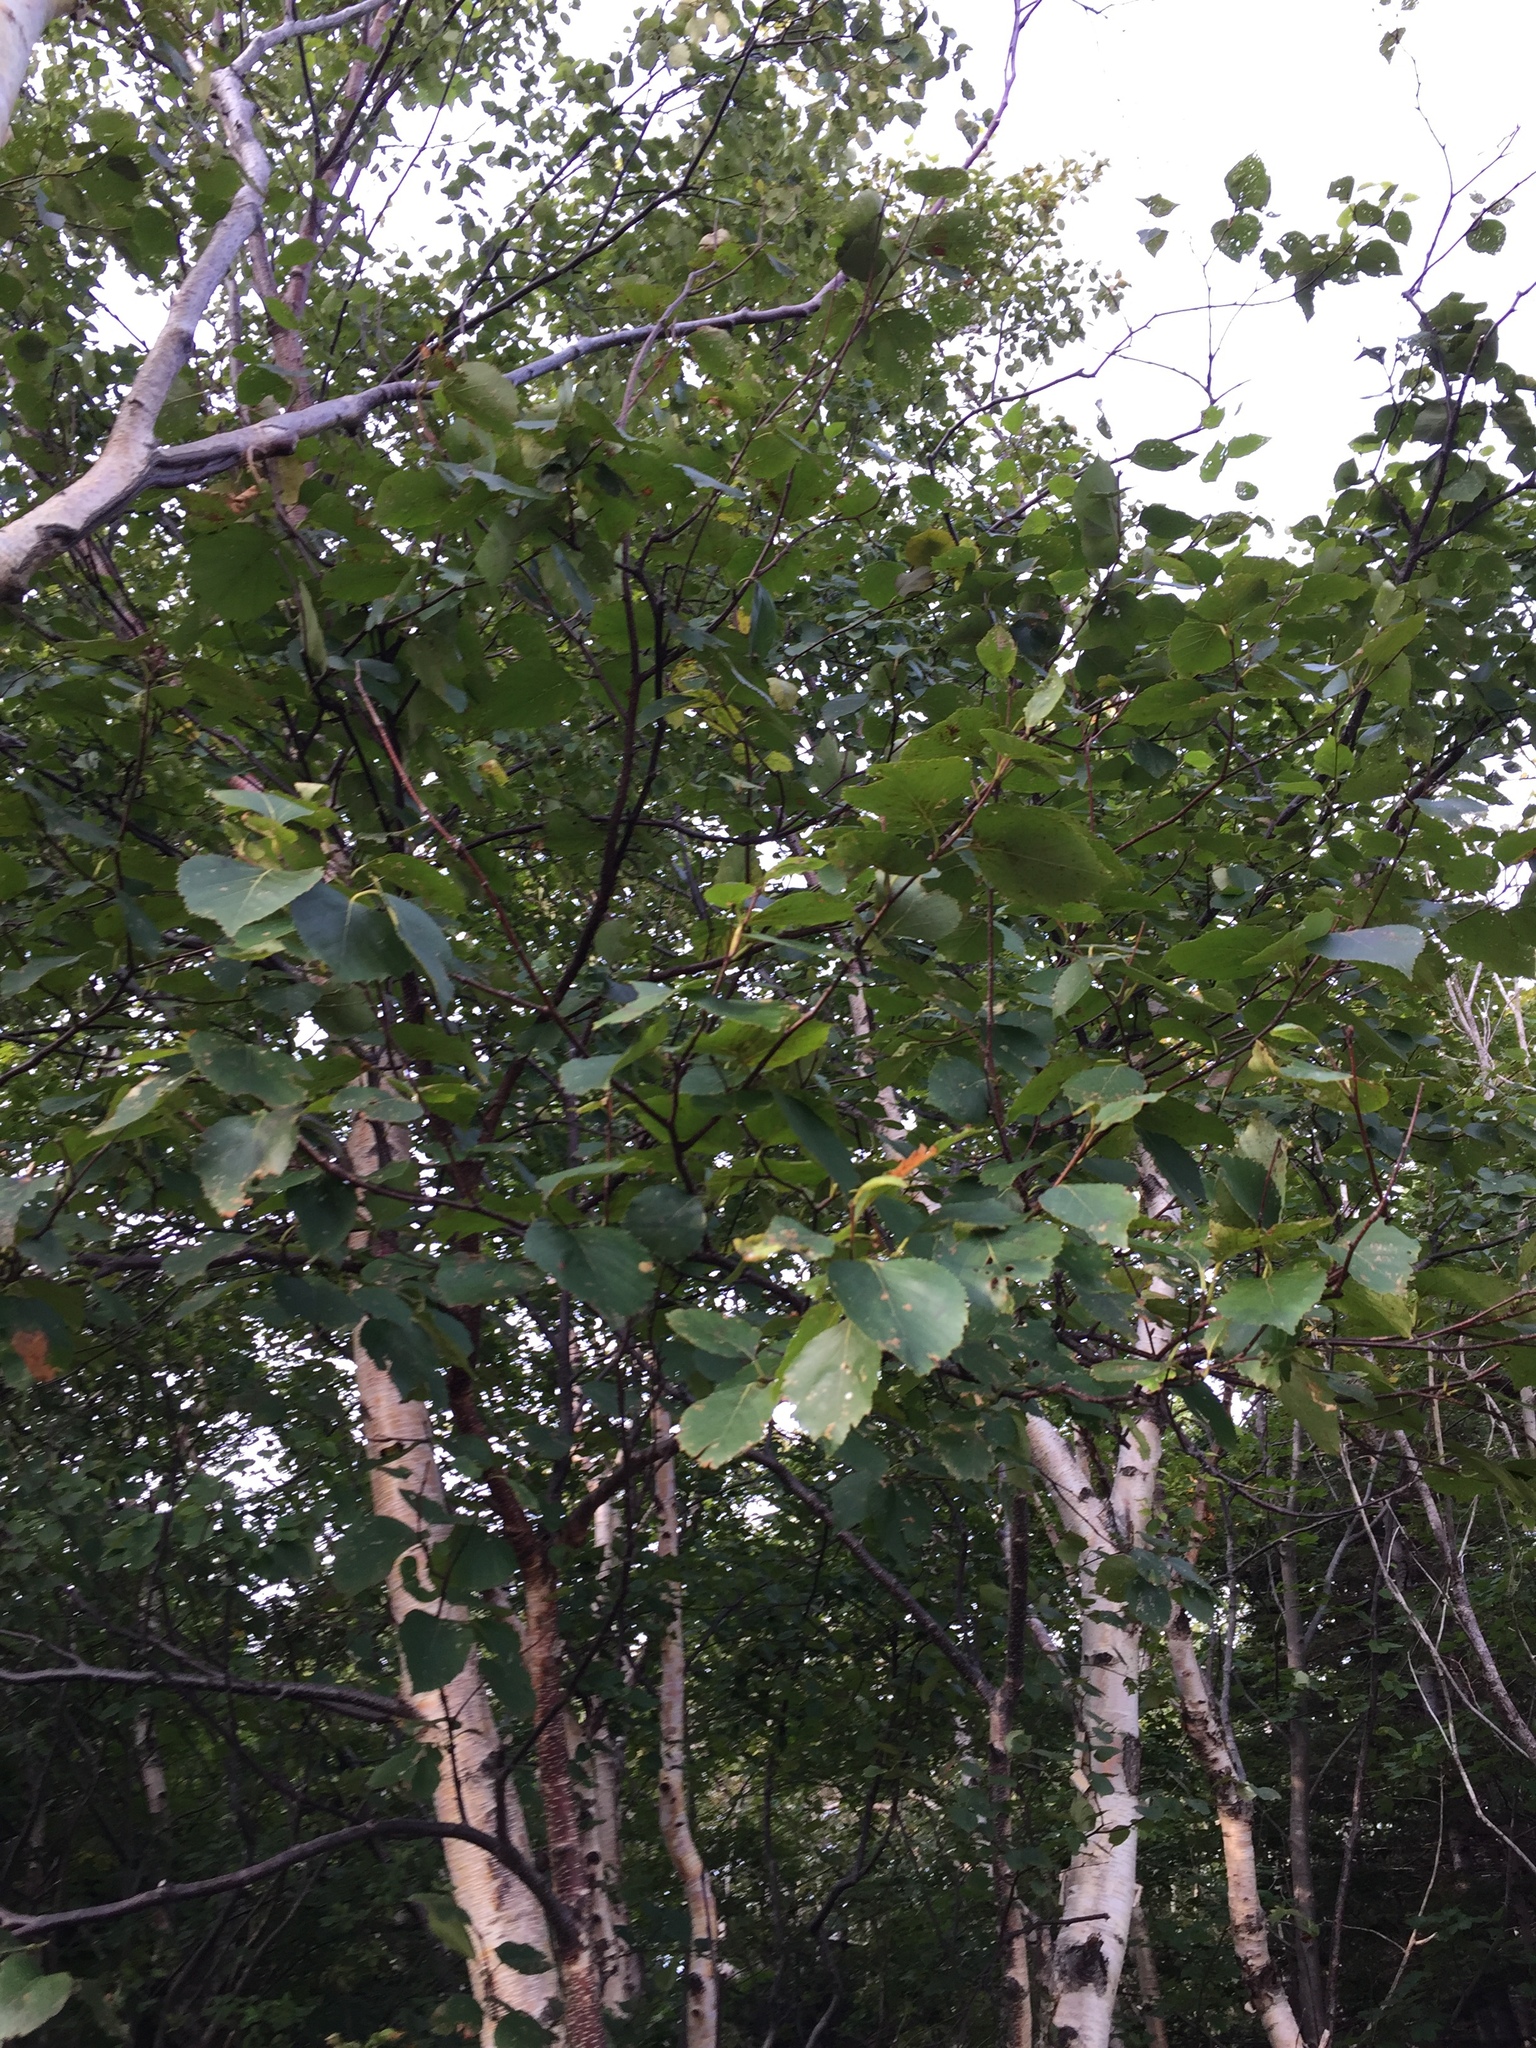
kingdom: Plantae
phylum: Tracheophyta
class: Magnoliopsida
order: Fagales
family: Betulaceae
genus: Betula
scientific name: Betula papyrifera
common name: Paper birch
